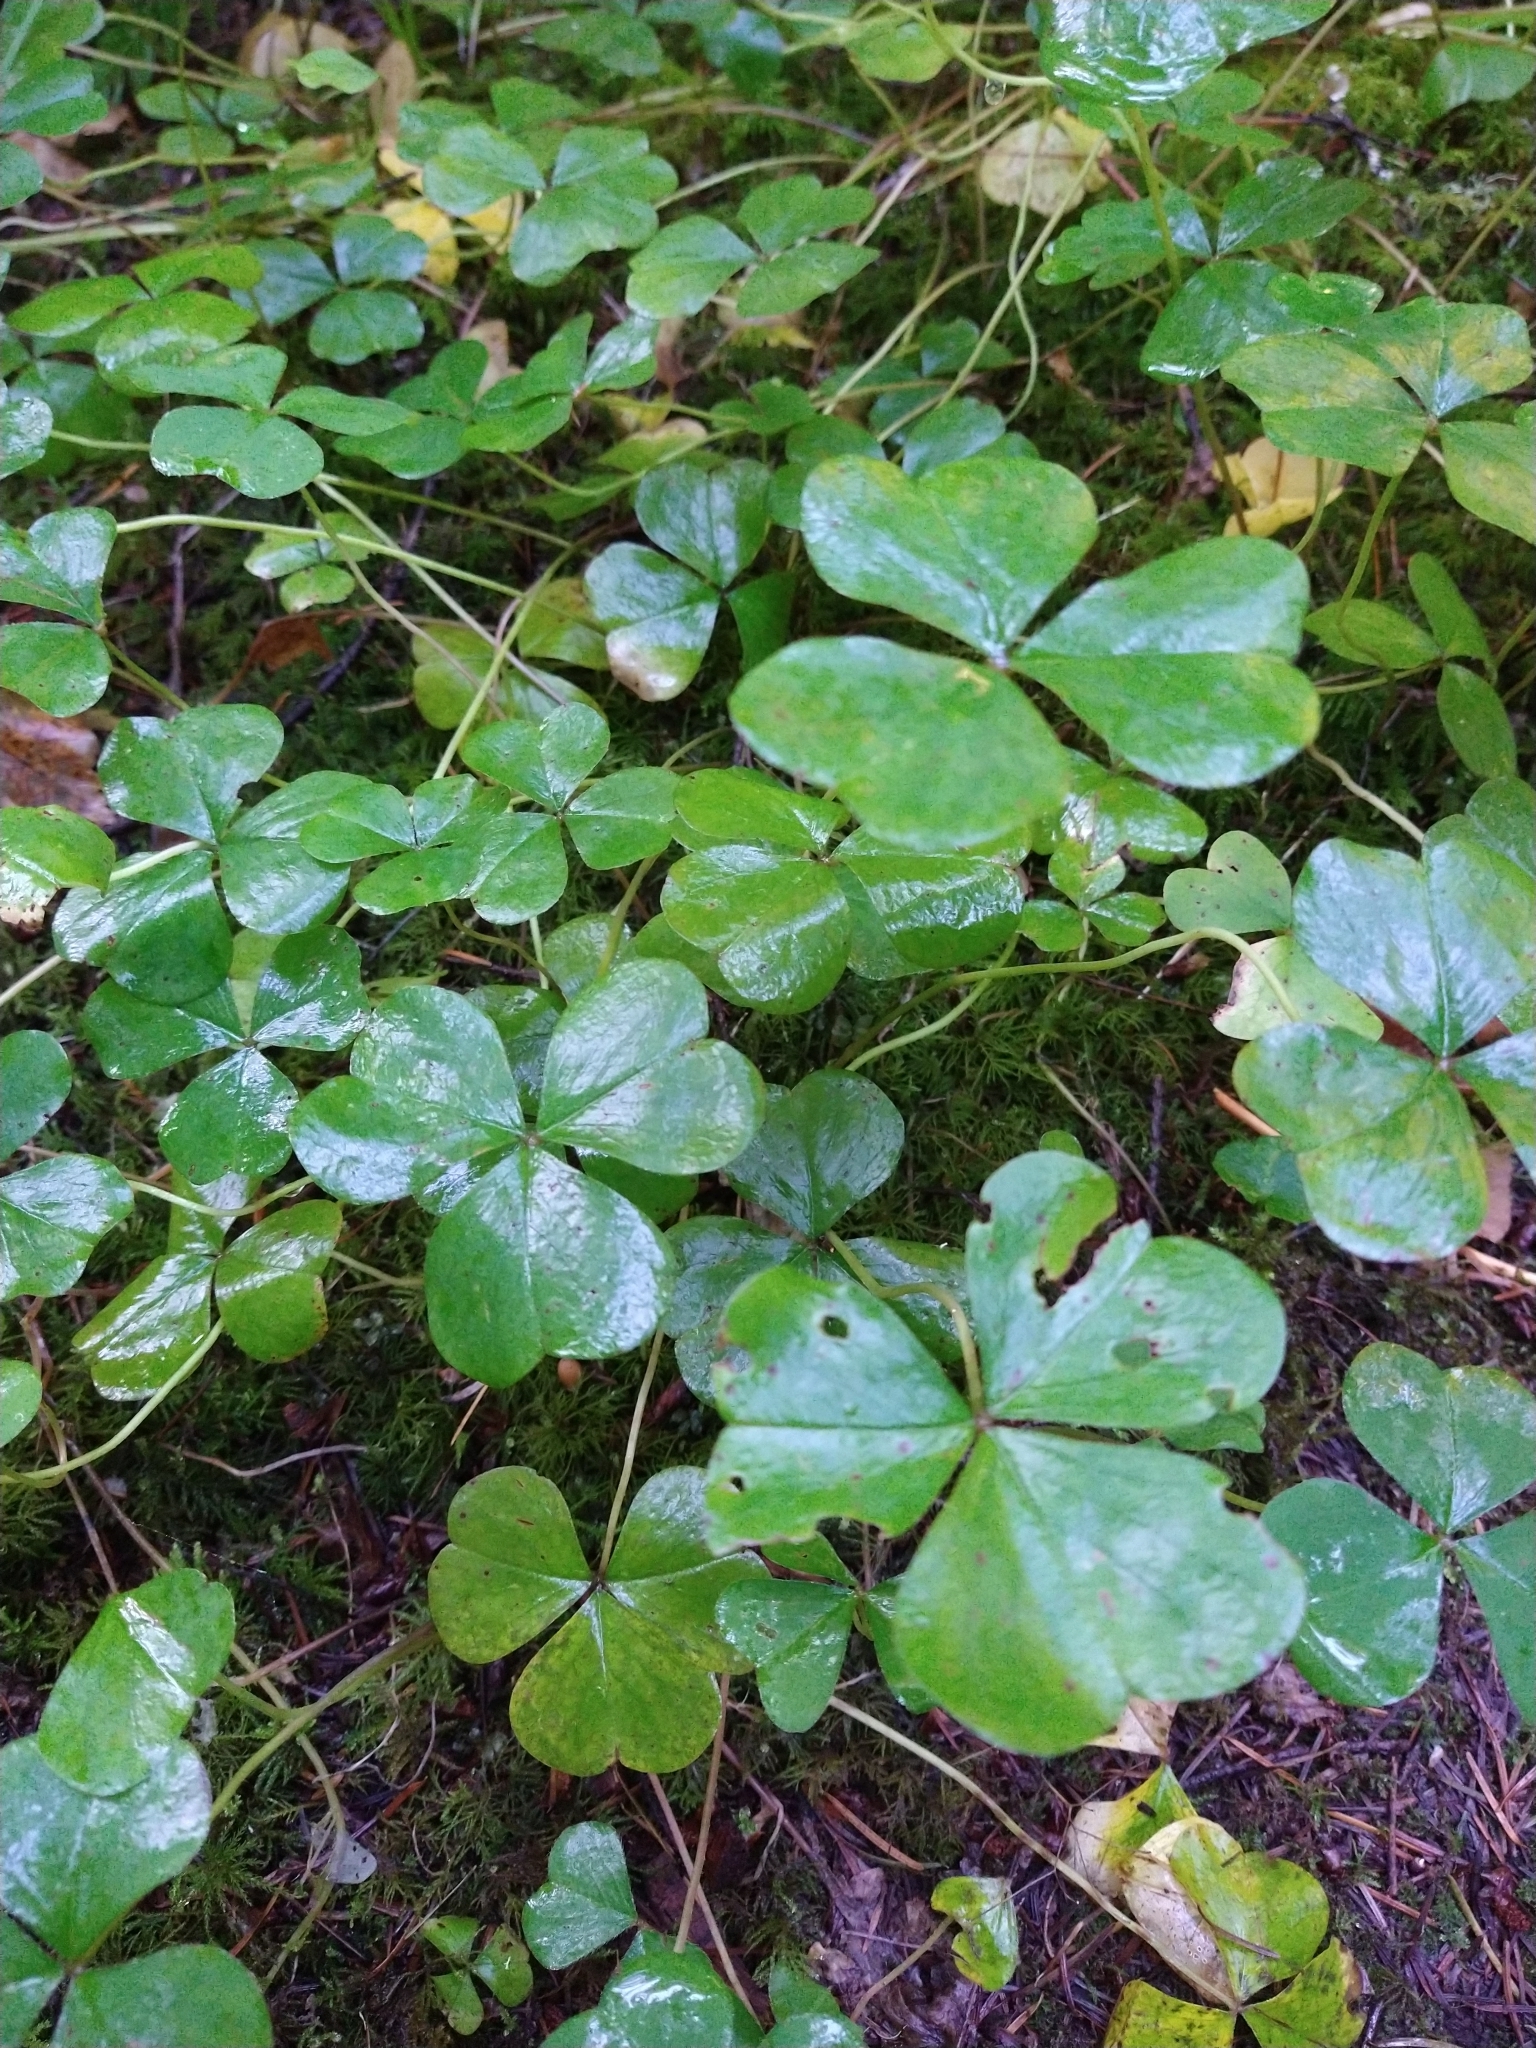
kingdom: Plantae
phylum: Tracheophyta
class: Magnoliopsida
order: Oxalidales
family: Oxalidaceae
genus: Oxalis
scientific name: Oxalis oregana
